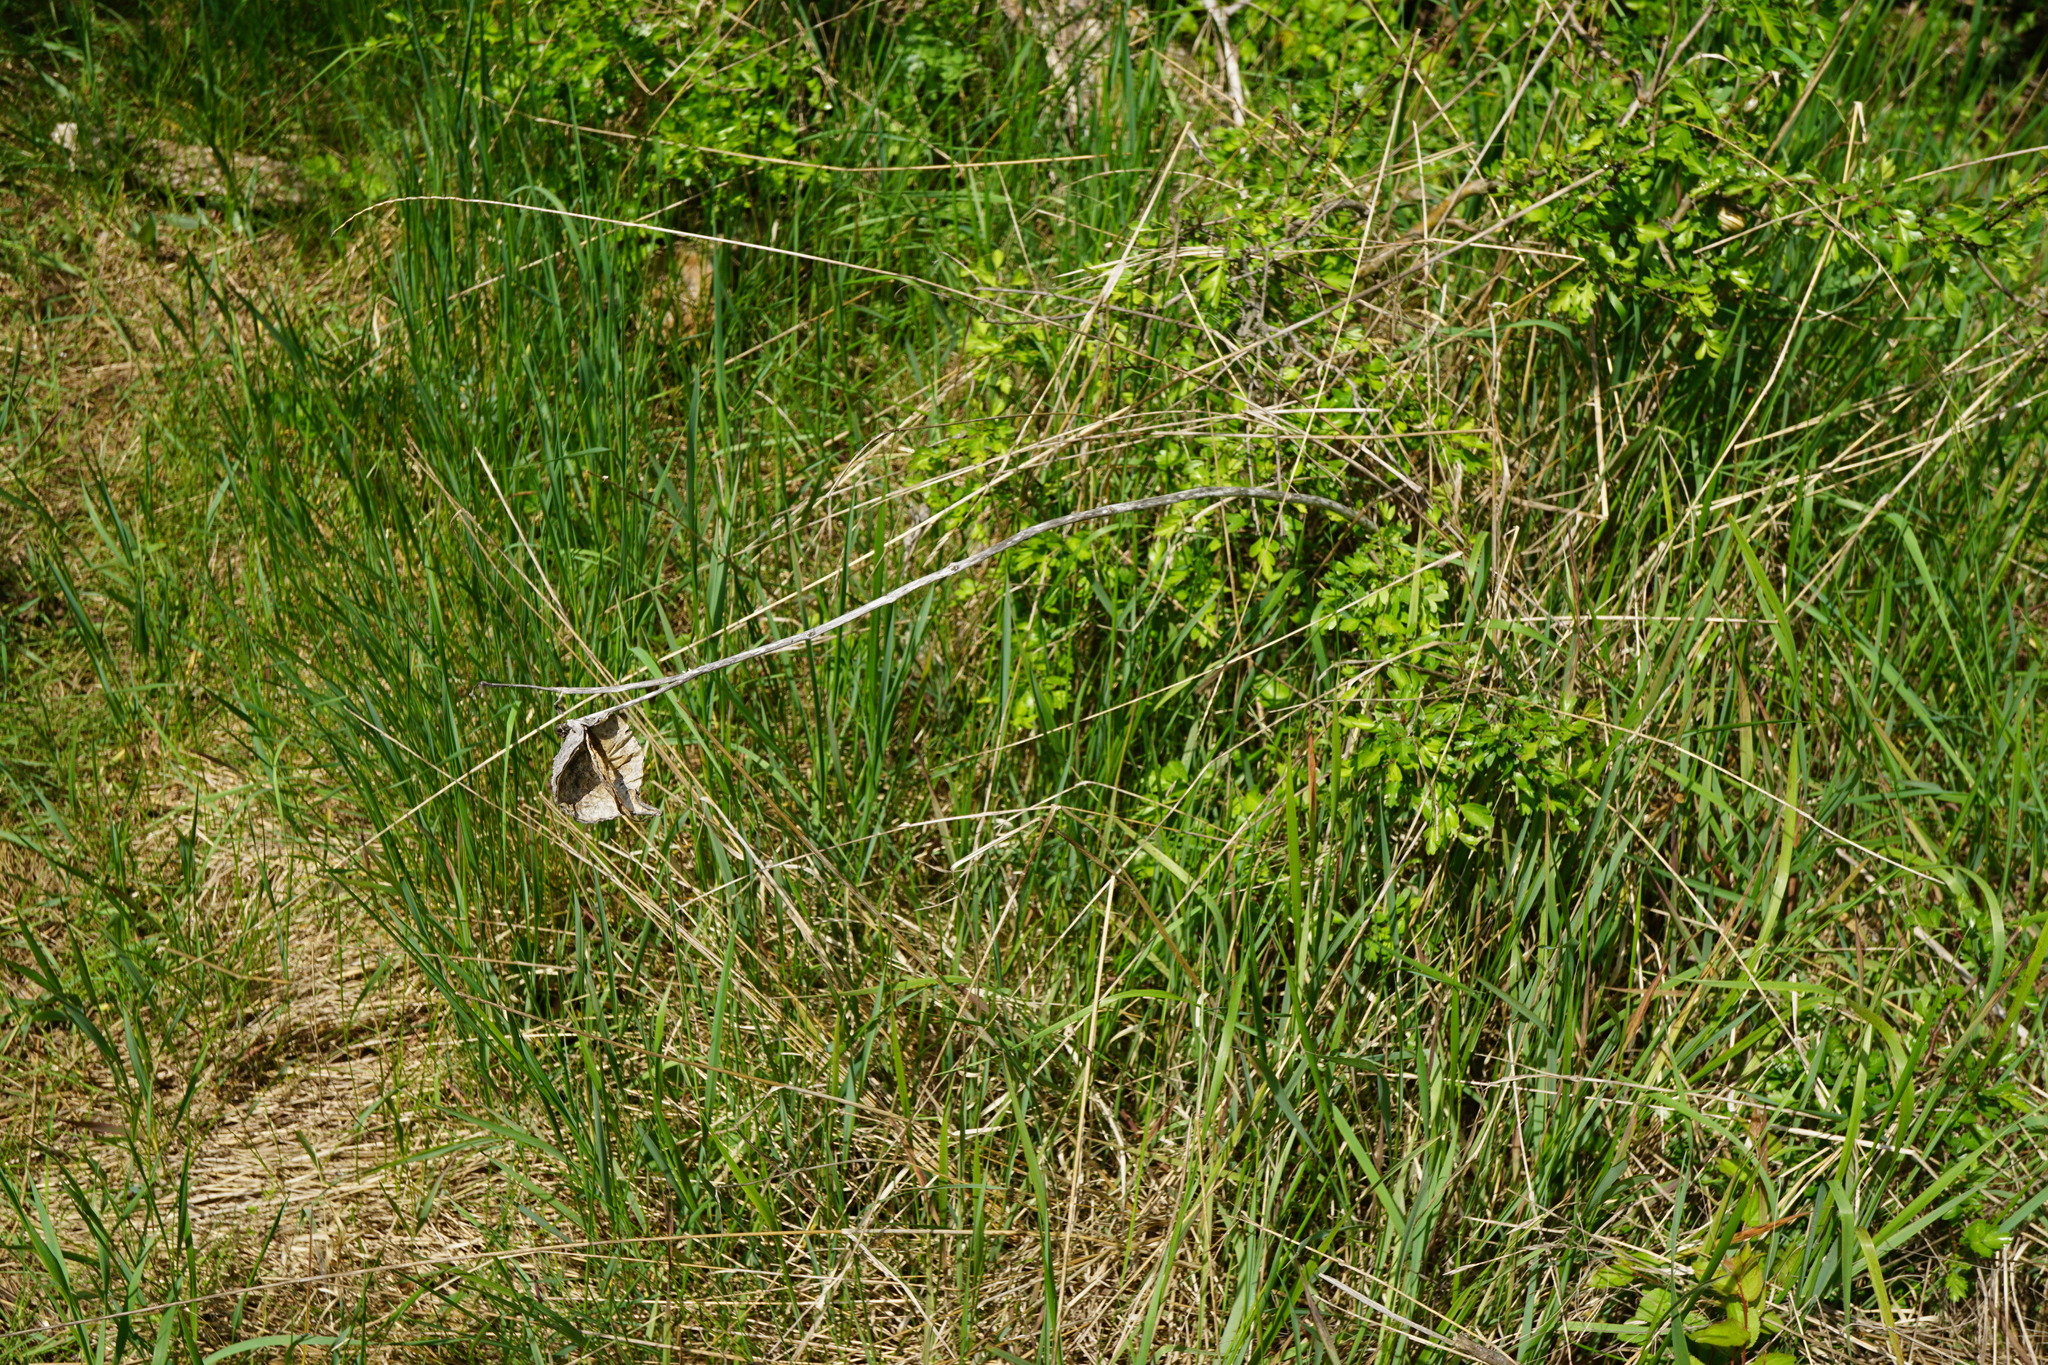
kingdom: Plantae
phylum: Tracheophyta
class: Magnoliopsida
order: Gentianales
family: Apocynaceae
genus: Asclepias
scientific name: Asclepias syriaca
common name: Common milkweed
